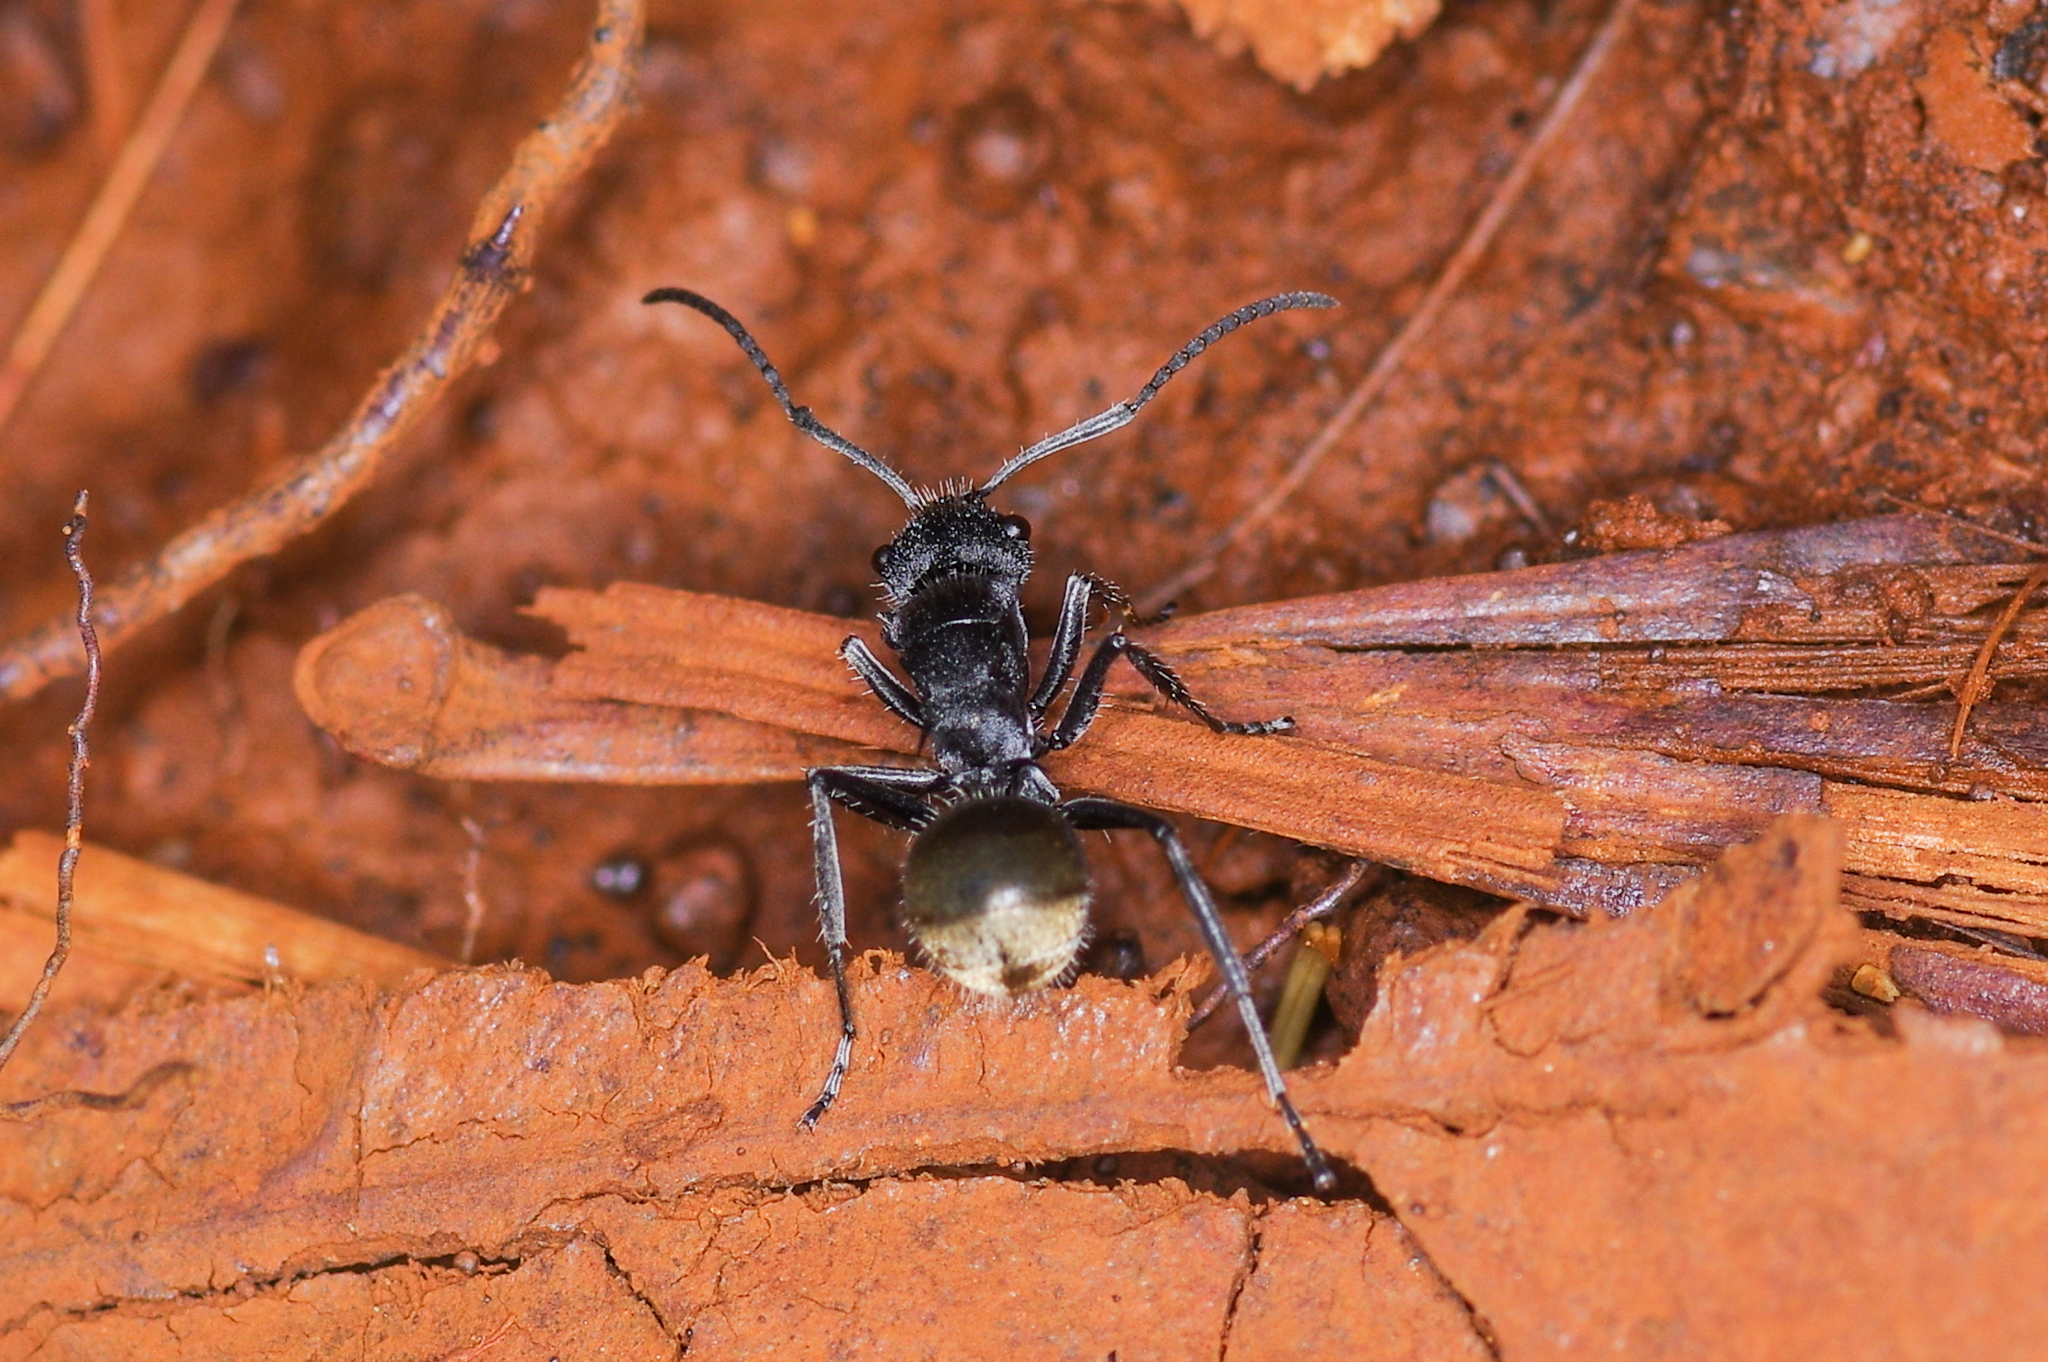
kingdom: Animalia
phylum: Arthropoda
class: Insecta
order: Hymenoptera
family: Formicidae
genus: Polyrhachis
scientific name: Polyrhachis guerini
